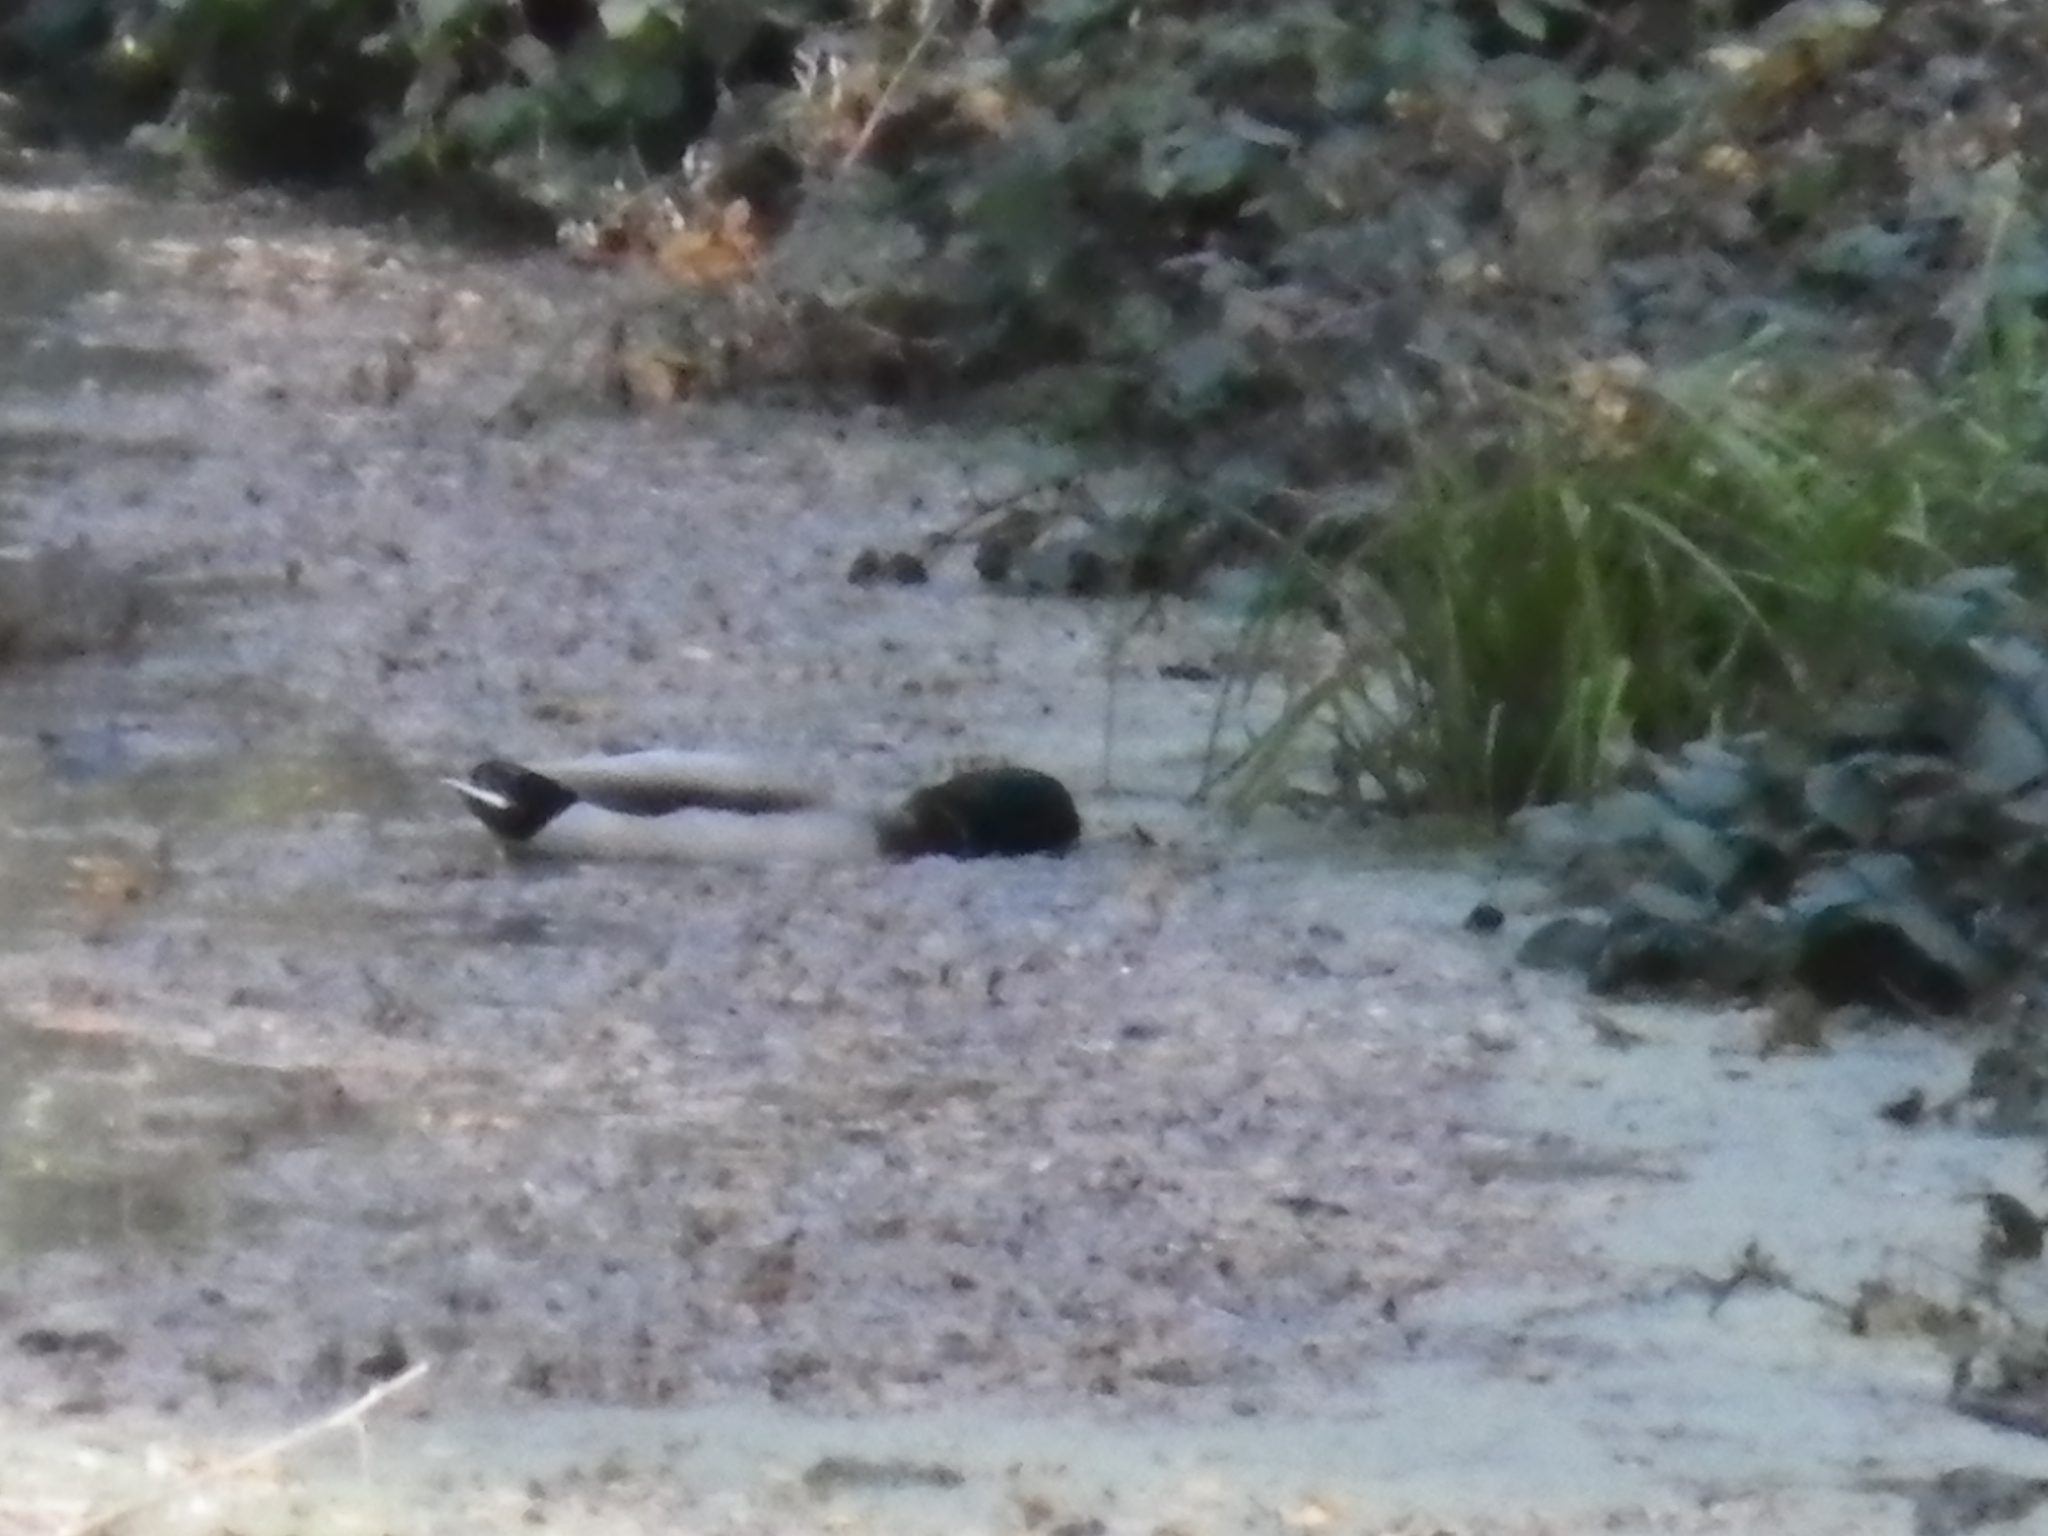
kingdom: Animalia
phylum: Chordata
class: Aves
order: Anseriformes
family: Anatidae
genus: Anas
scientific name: Anas platyrhynchos
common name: Mallard
